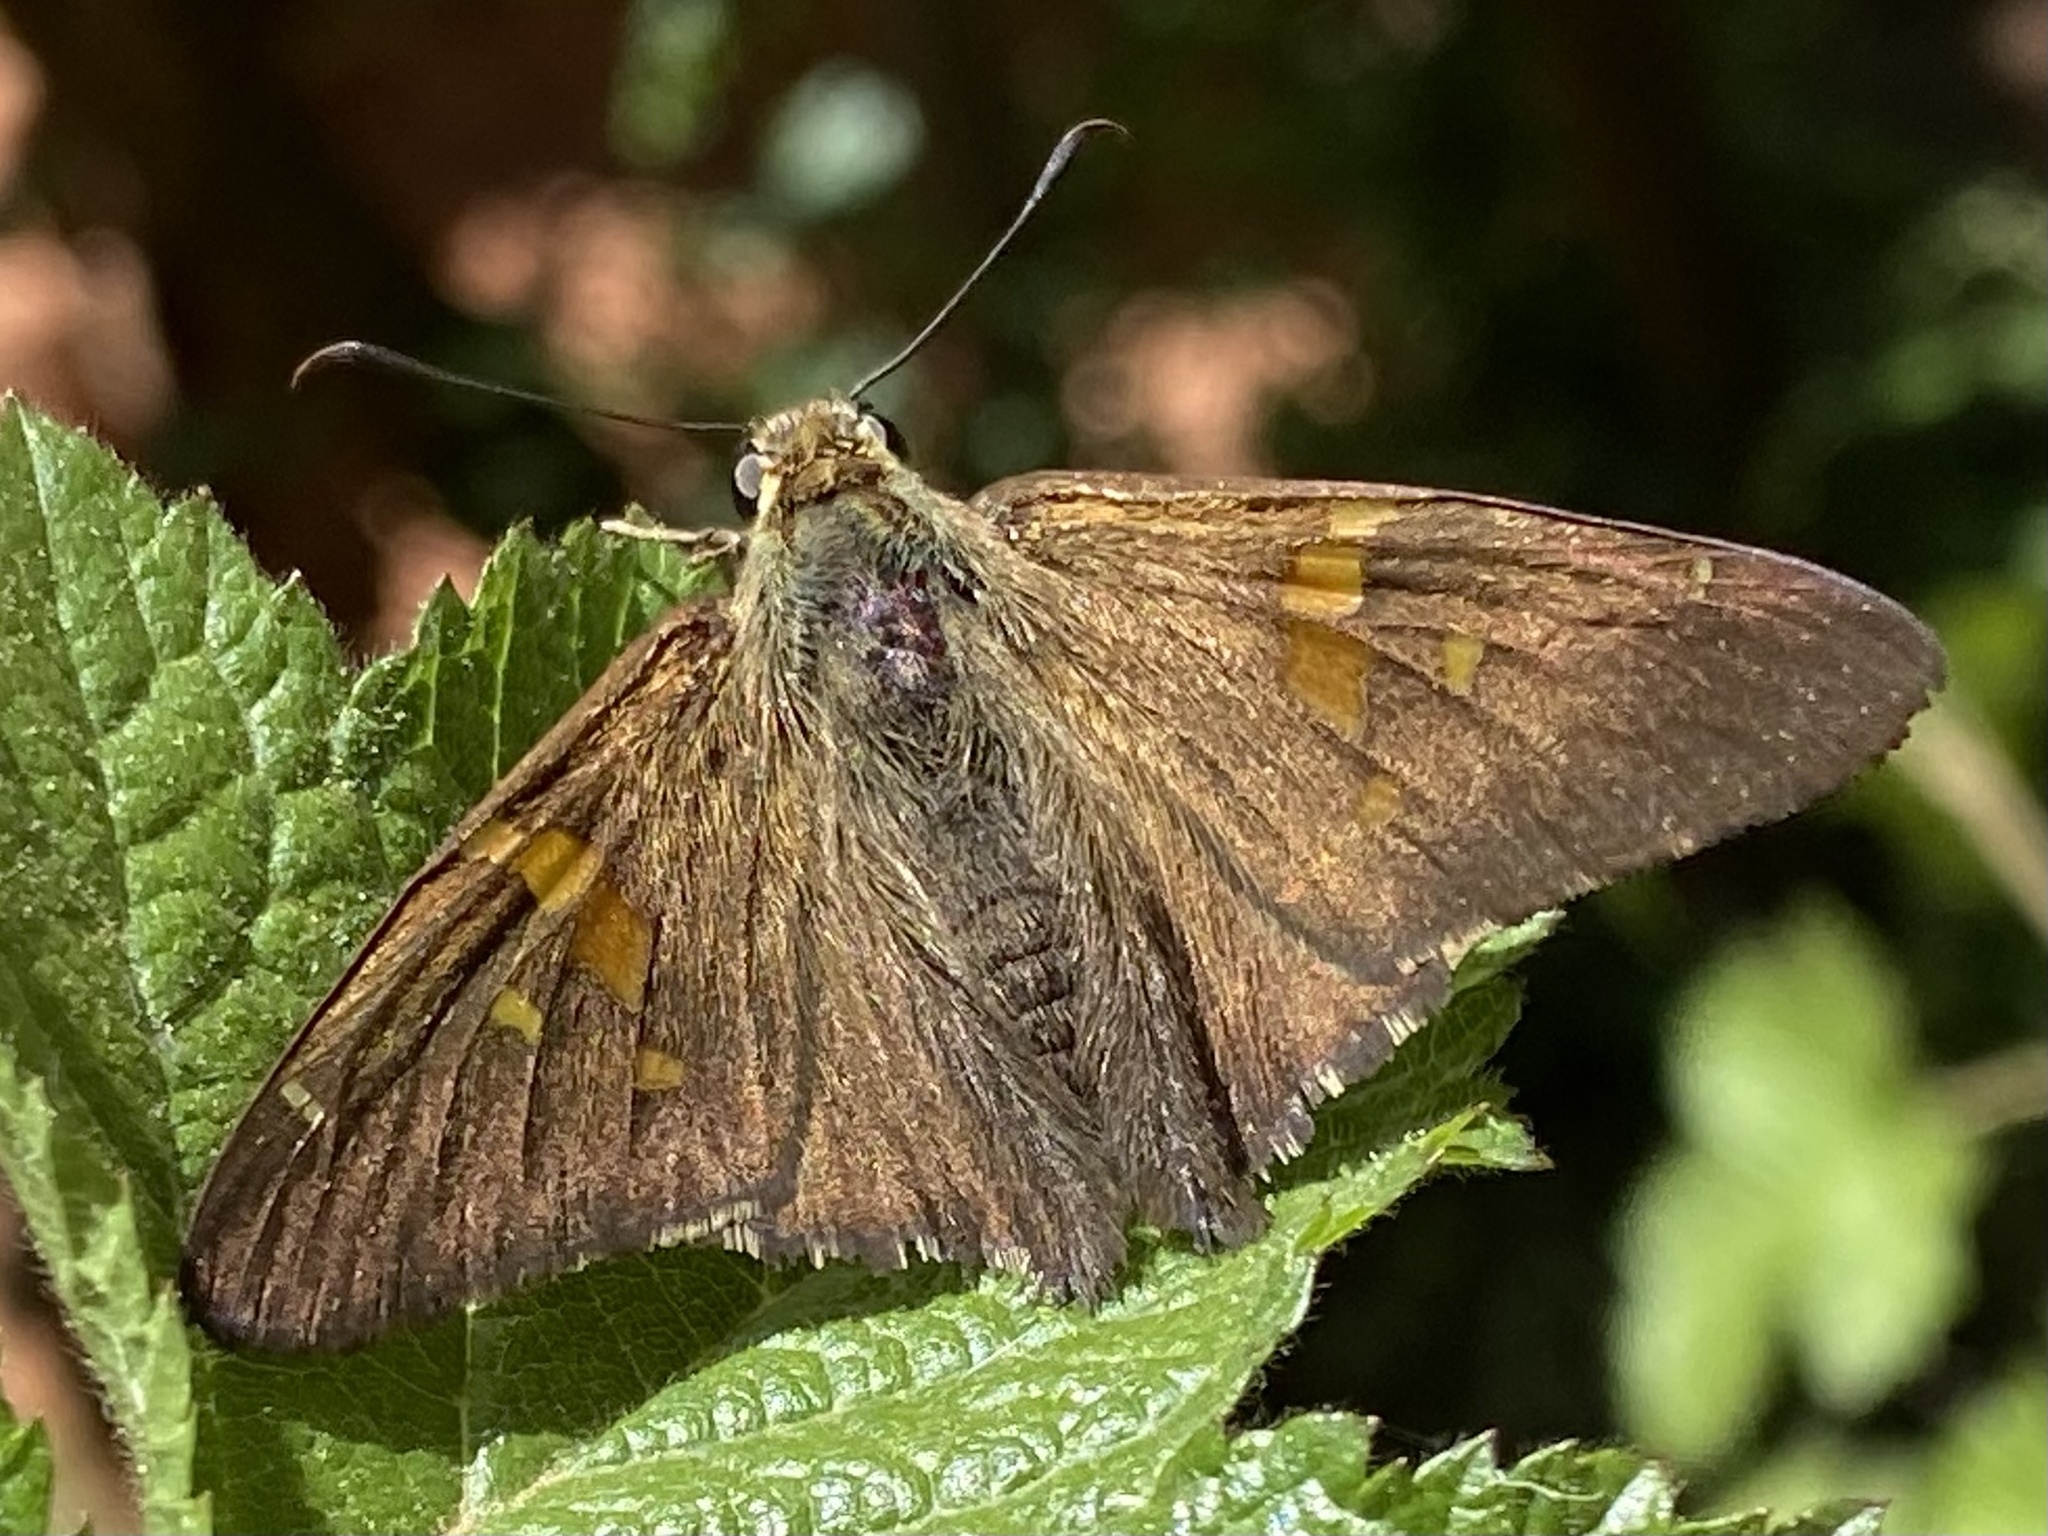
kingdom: Animalia
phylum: Arthropoda
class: Insecta
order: Lepidoptera
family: Hesperiidae
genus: Epargyreus
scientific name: Epargyreus clarus
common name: Silver-spotted skipper
